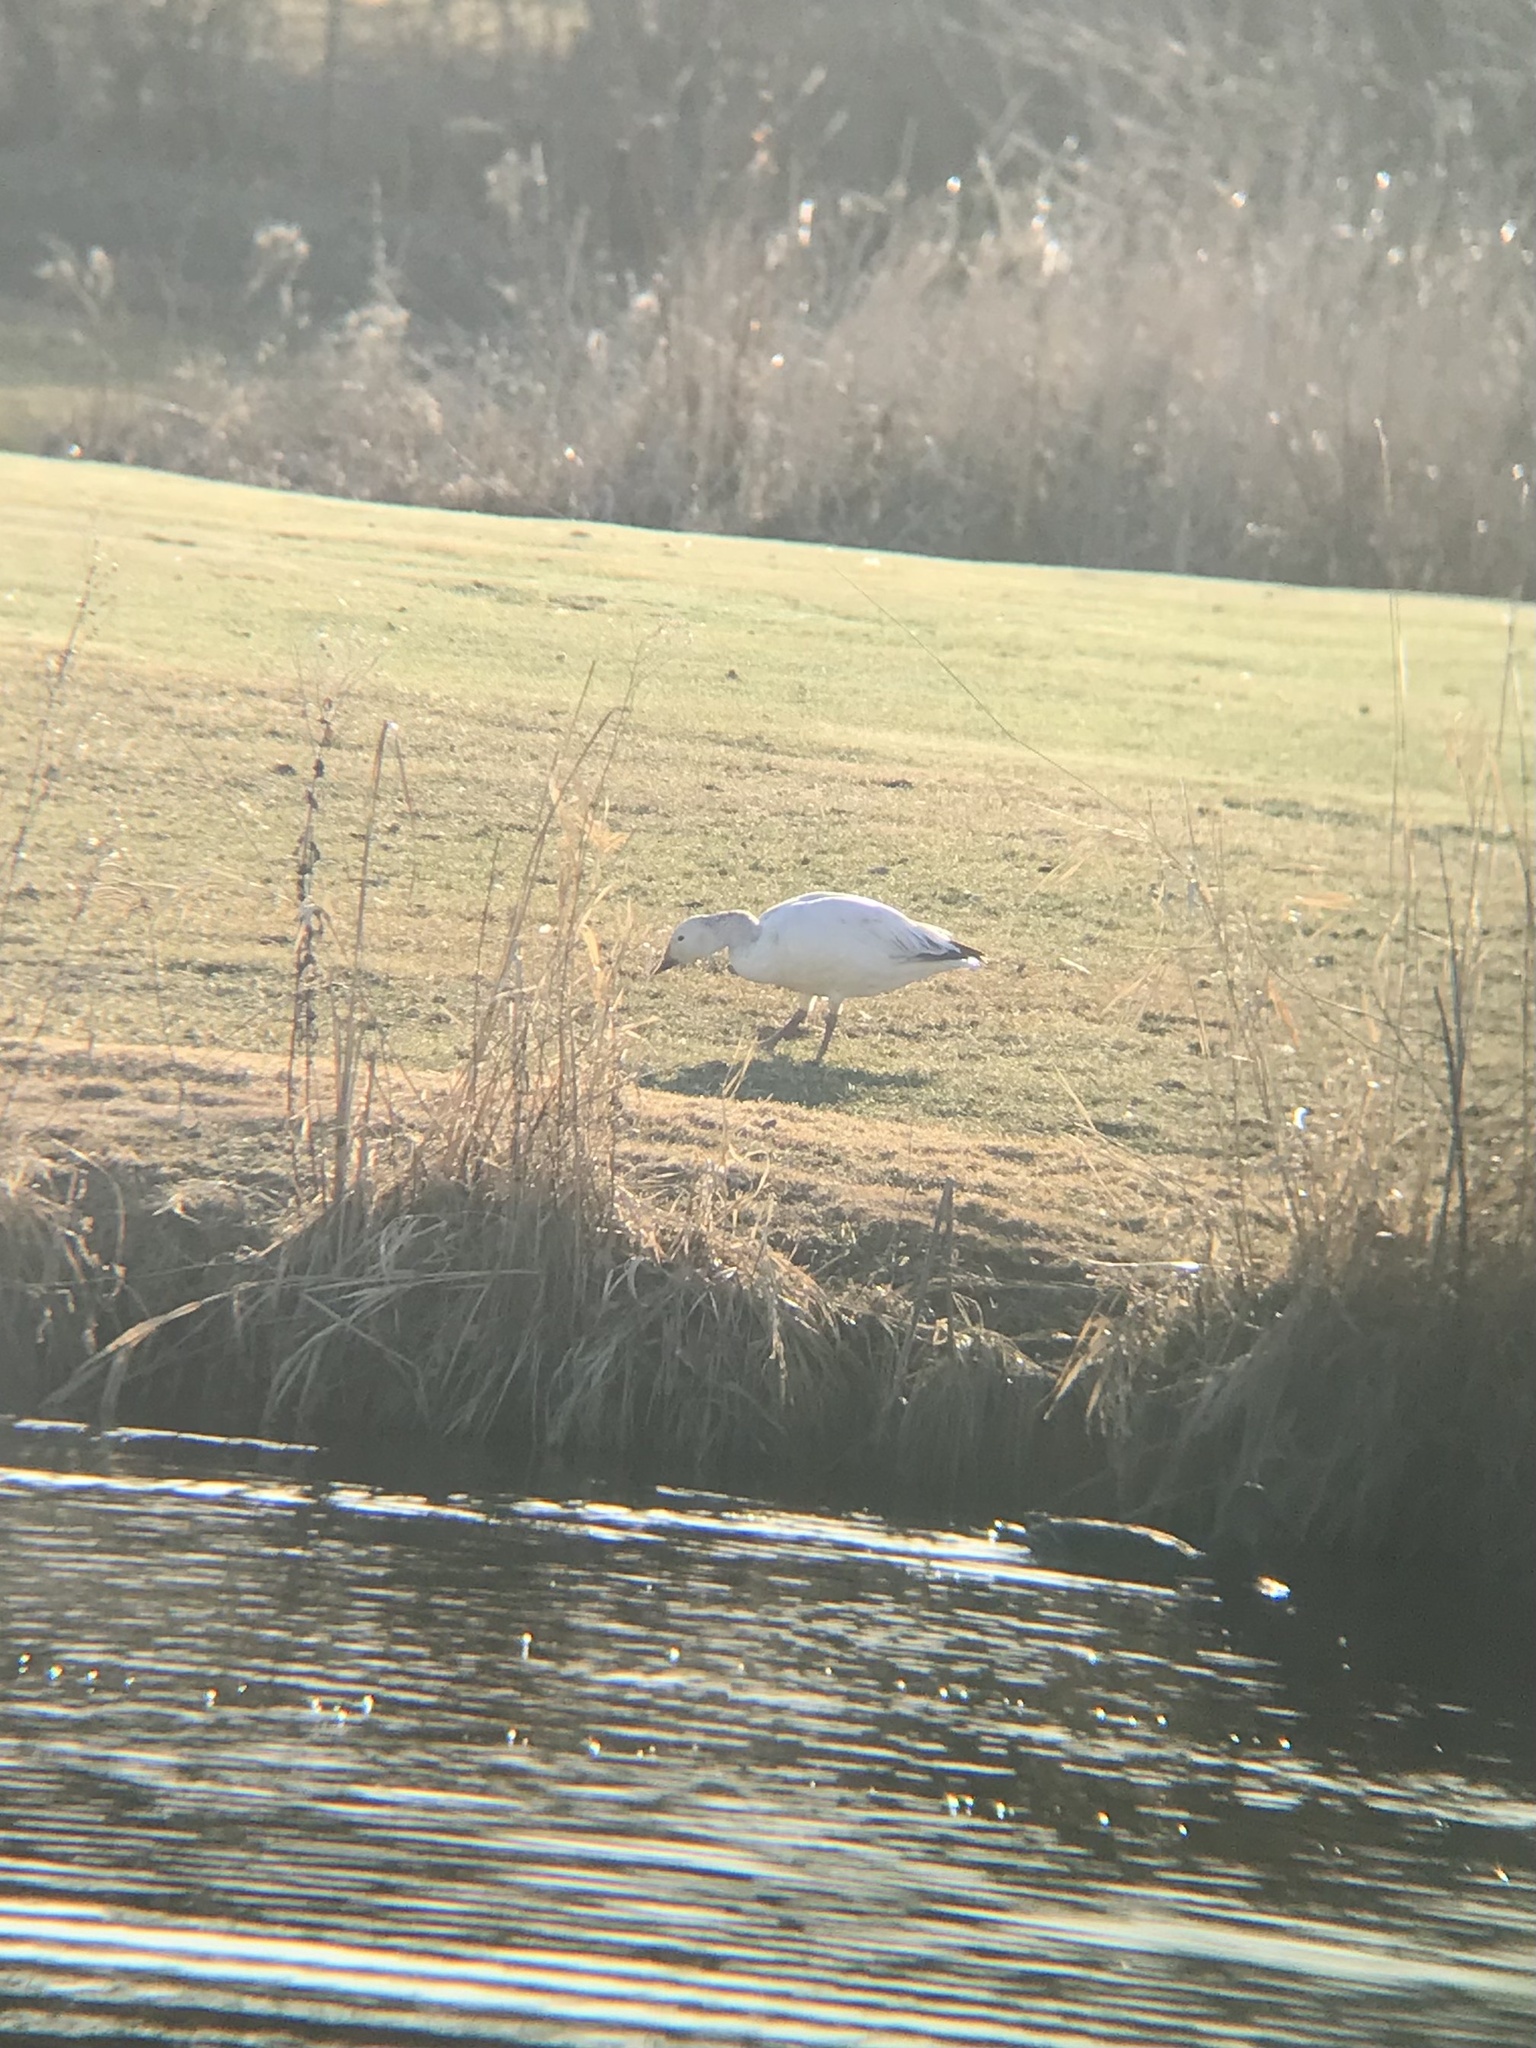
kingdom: Animalia
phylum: Chordata
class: Aves
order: Anseriformes
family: Anatidae
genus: Anser
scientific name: Anser caerulescens
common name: Snow goose
